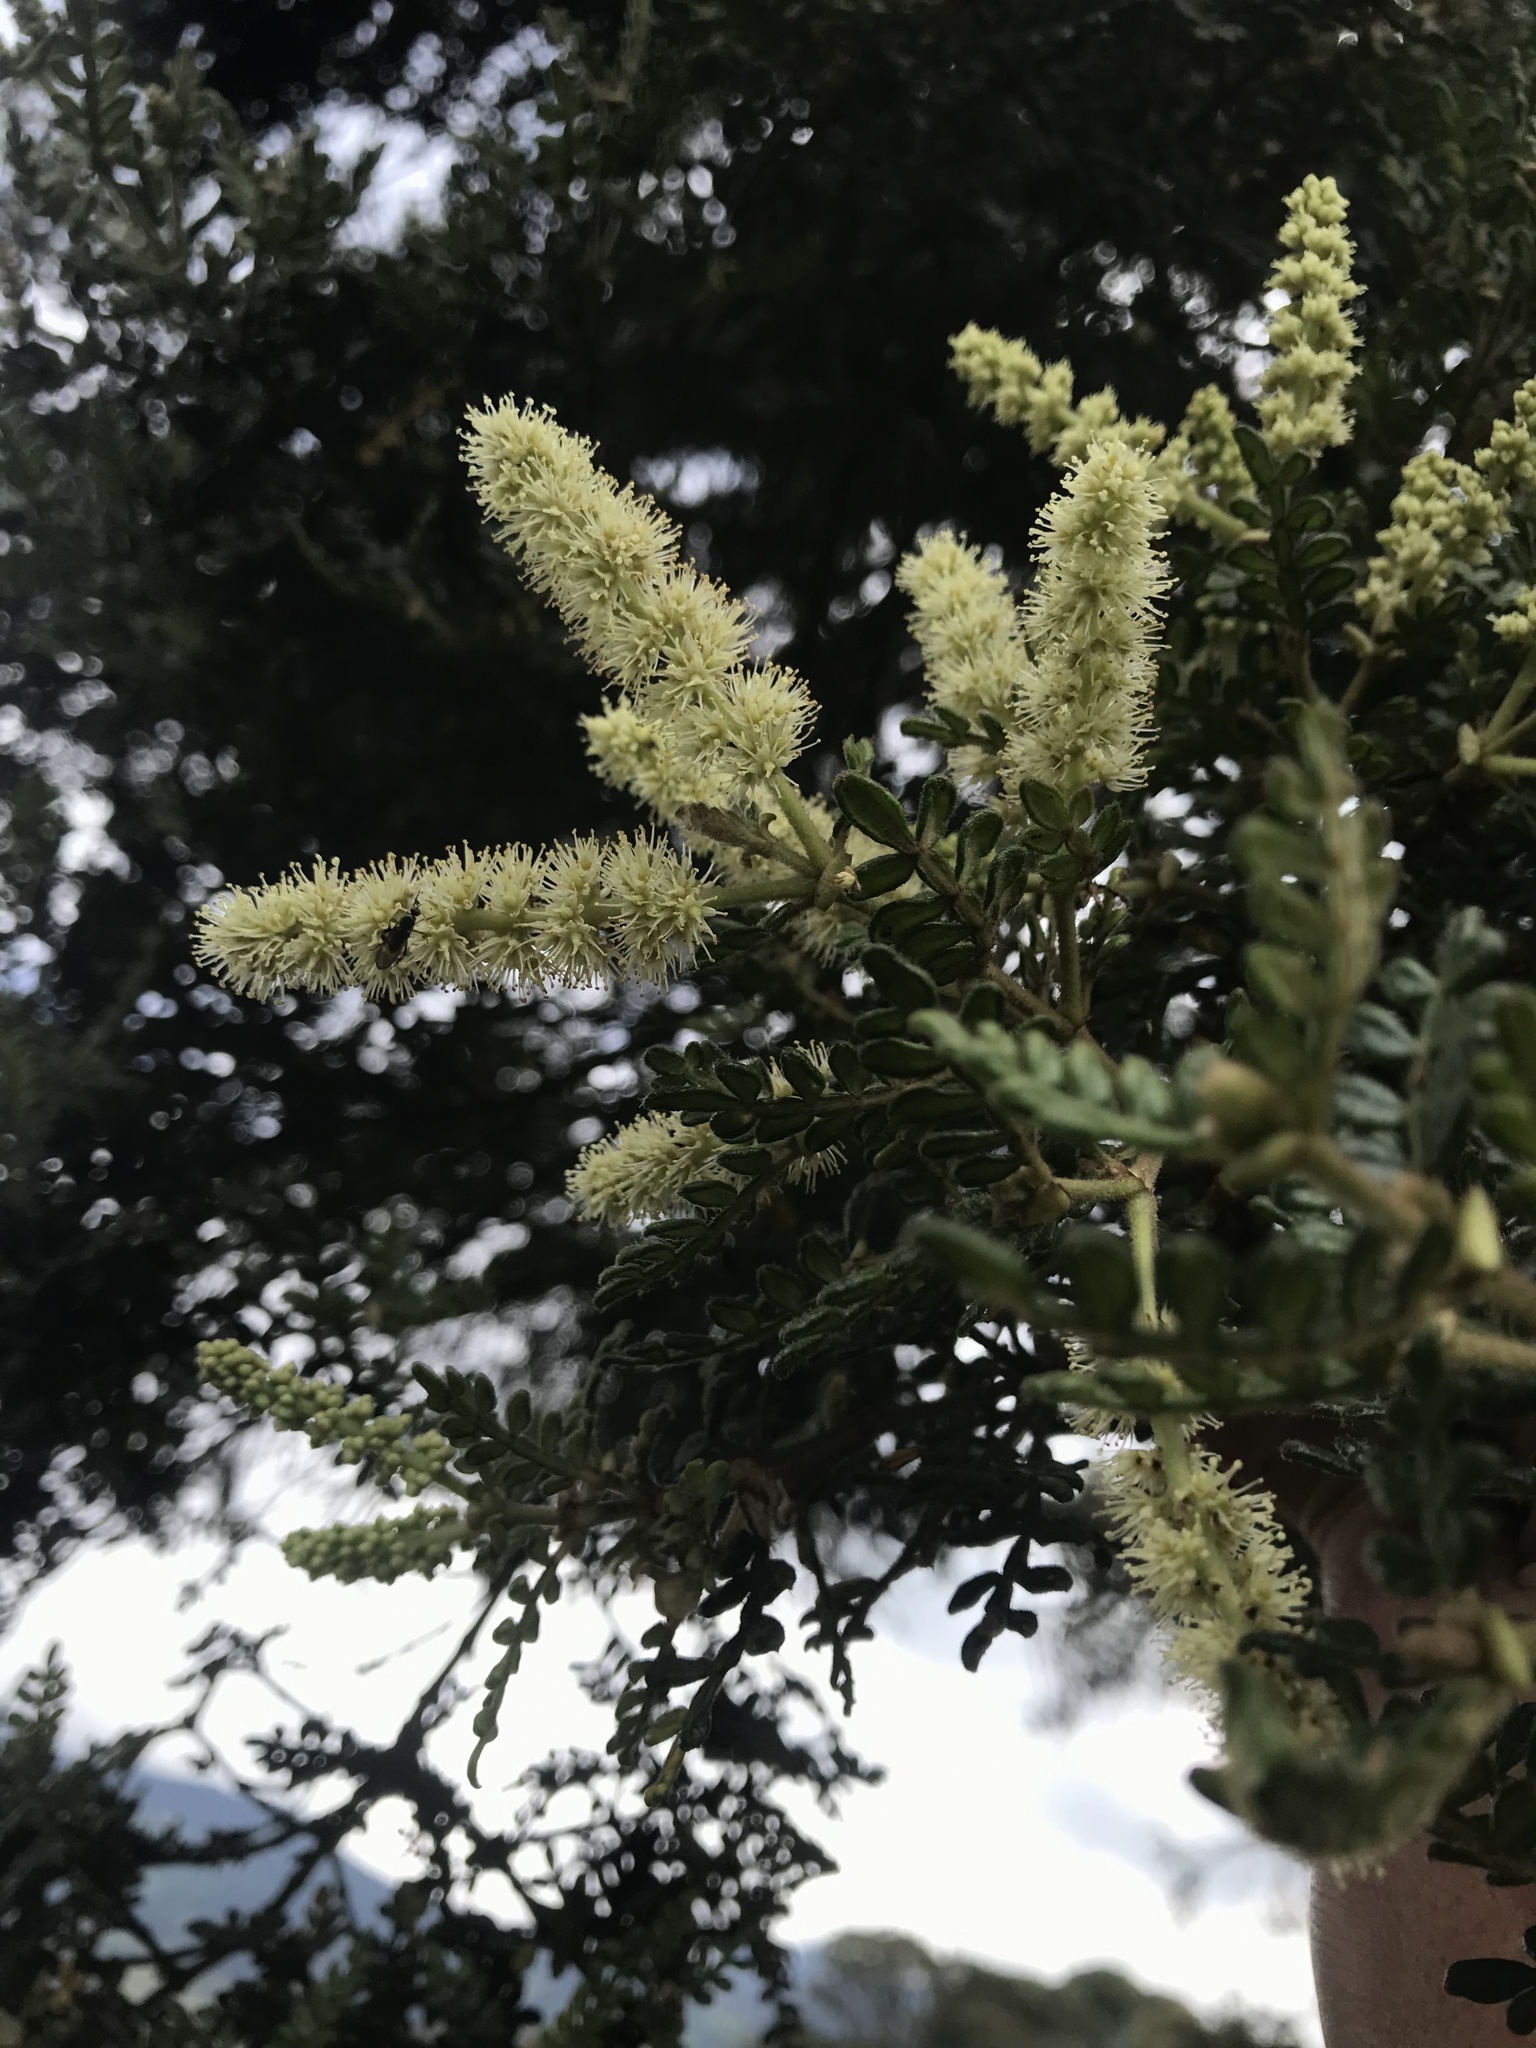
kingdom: Plantae
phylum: Tracheophyta
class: Magnoliopsida
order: Oxalidales
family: Cunoniaceae
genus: Weinmannia
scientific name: Weinmannia tomentosa
